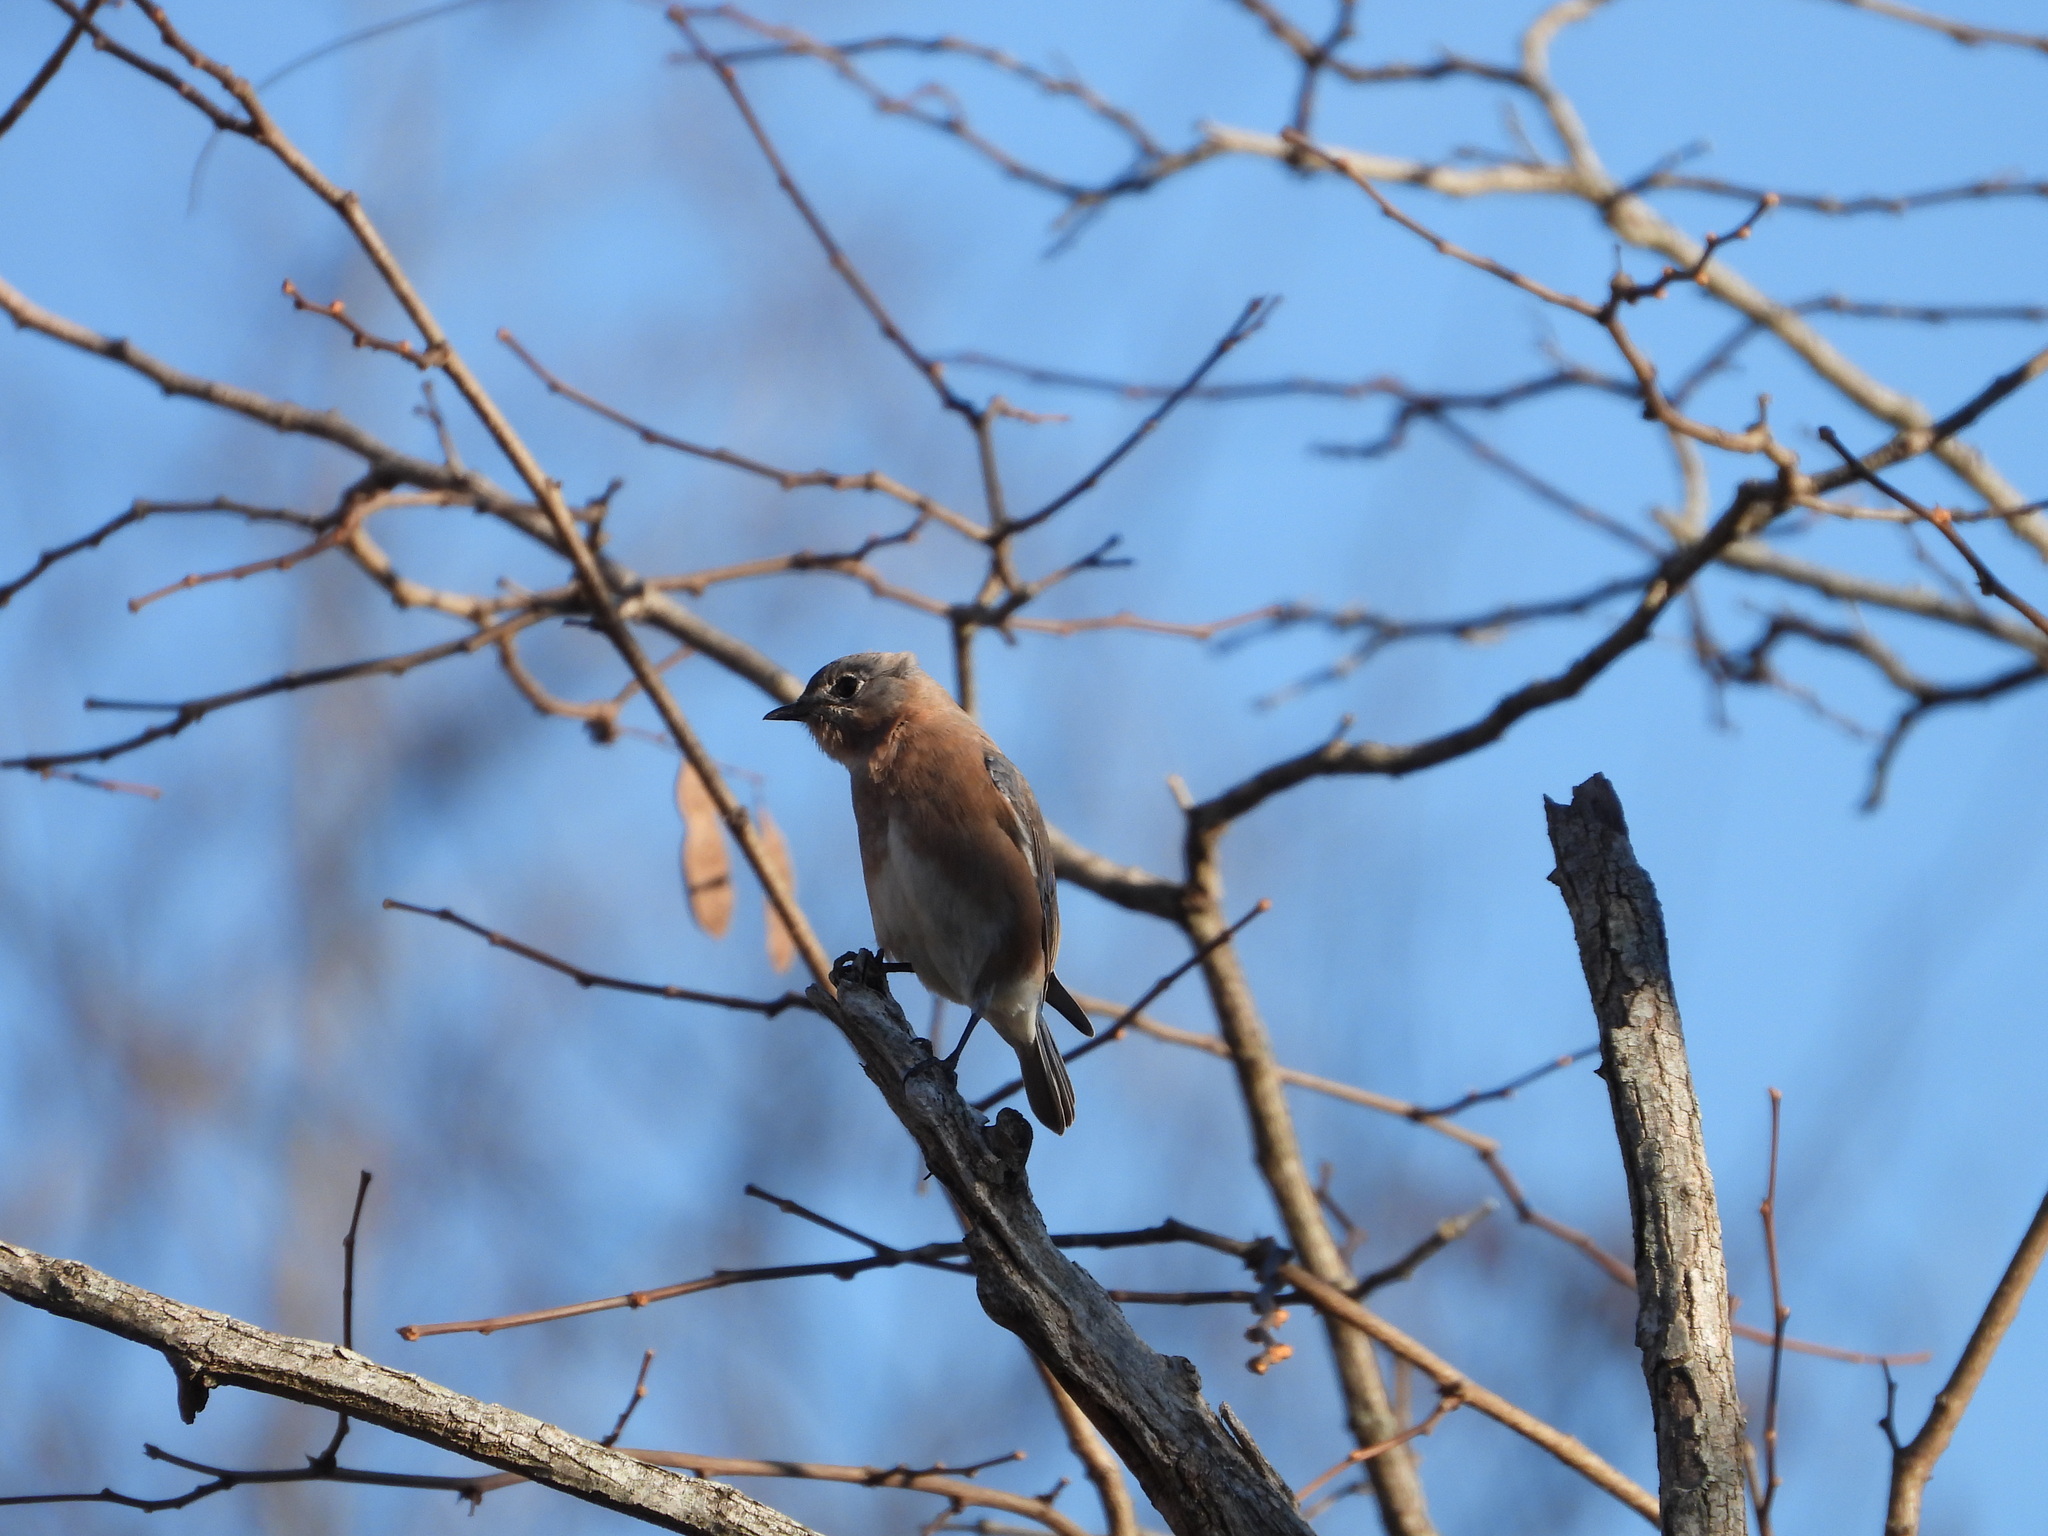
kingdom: Animalia
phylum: Chordata
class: Aves
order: Passeriformes
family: Turdidae
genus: Sialia
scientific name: Sialia sialis
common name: Eastern bluebird
